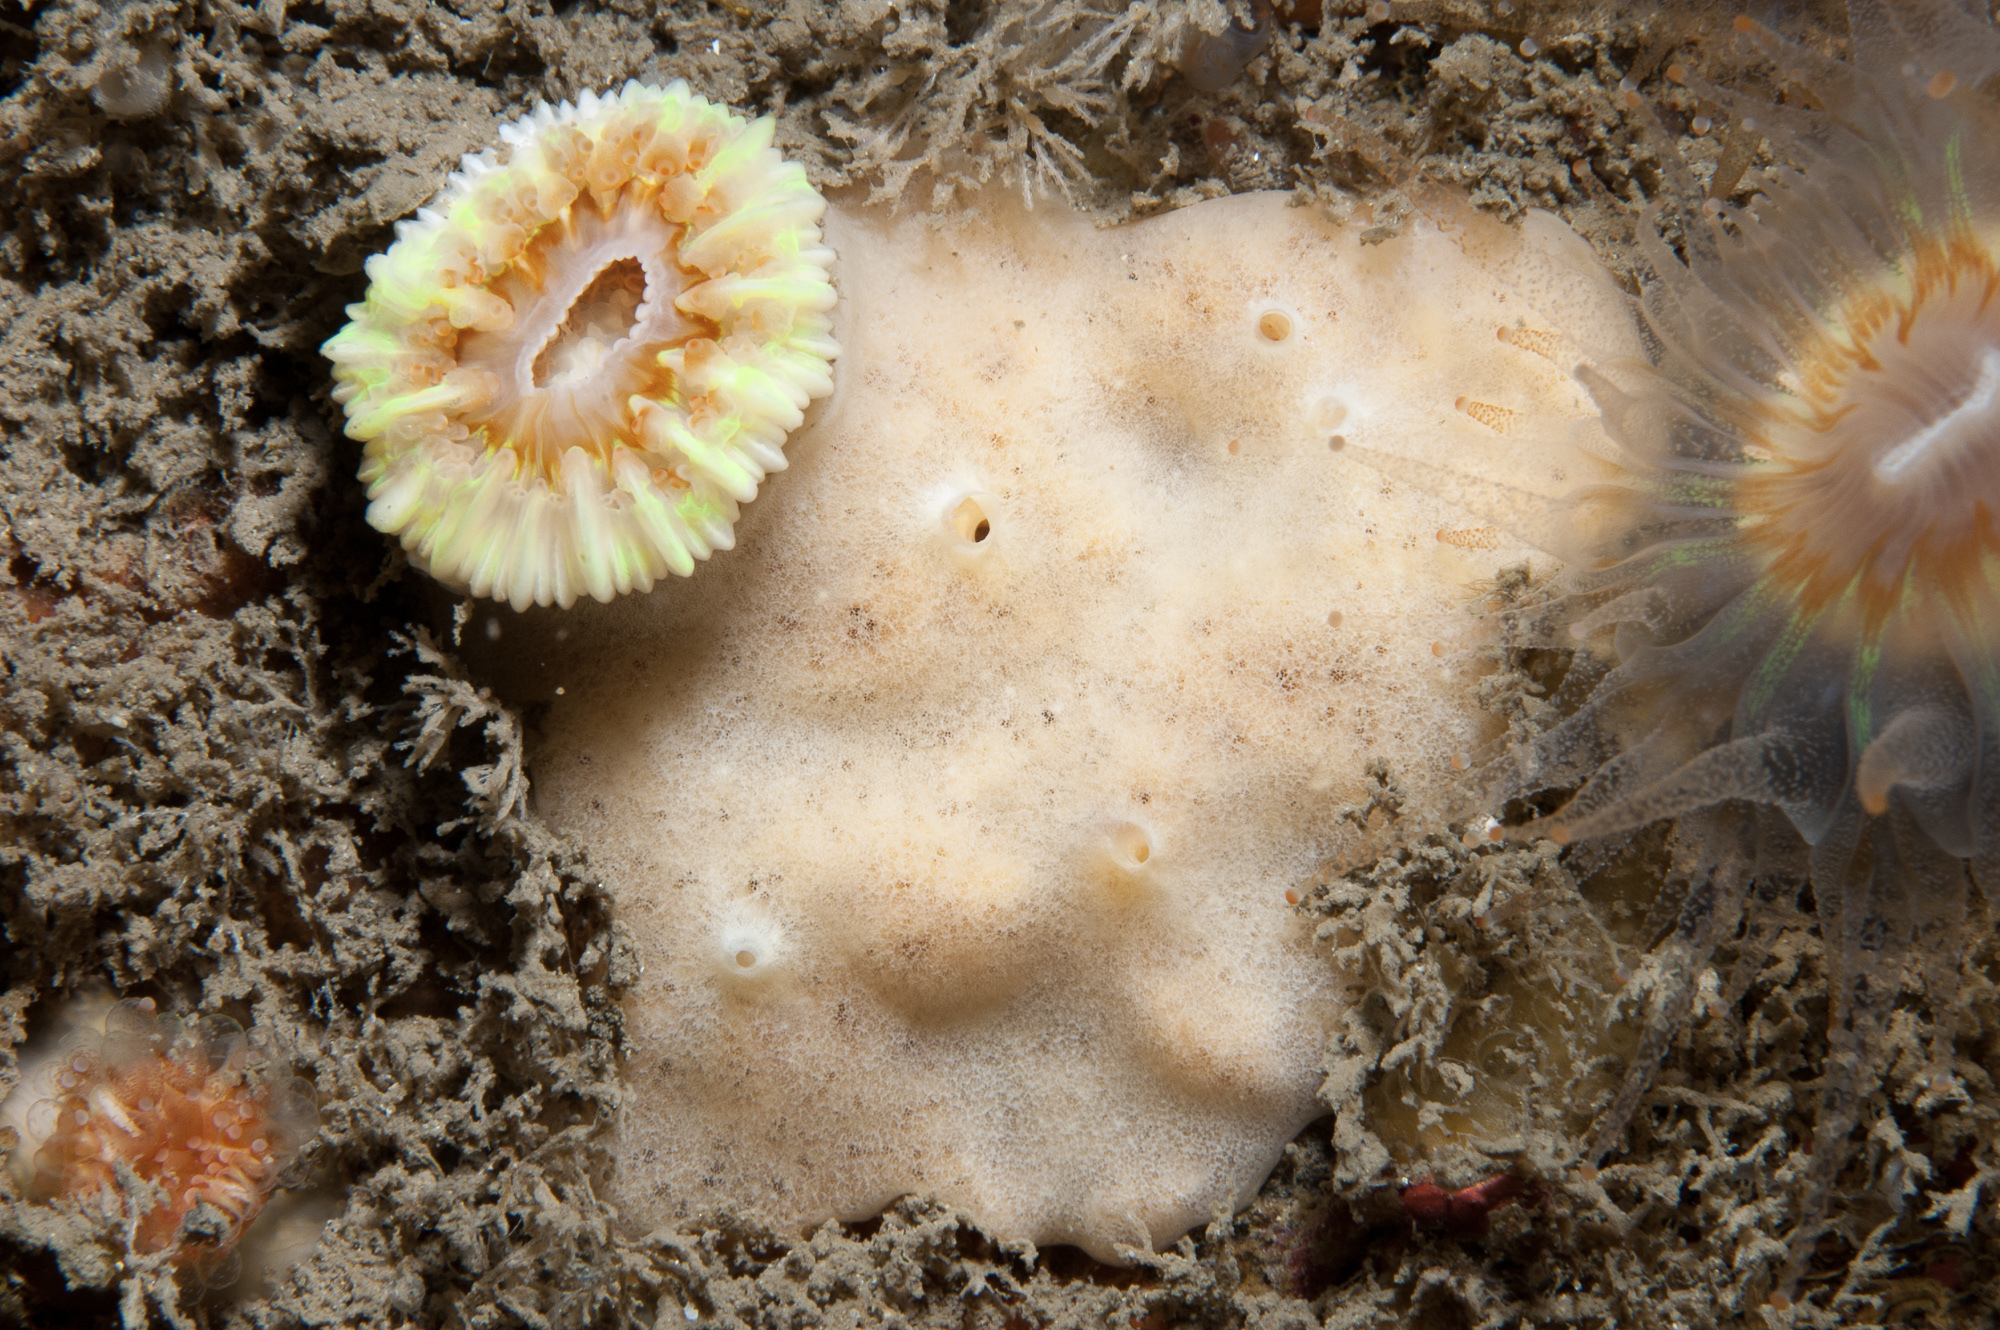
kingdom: Animalia
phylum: Porifera
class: Demospongiae
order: Poecilosclerida
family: Myxillidae
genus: Myxilla
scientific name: Myxilla fimbriata
